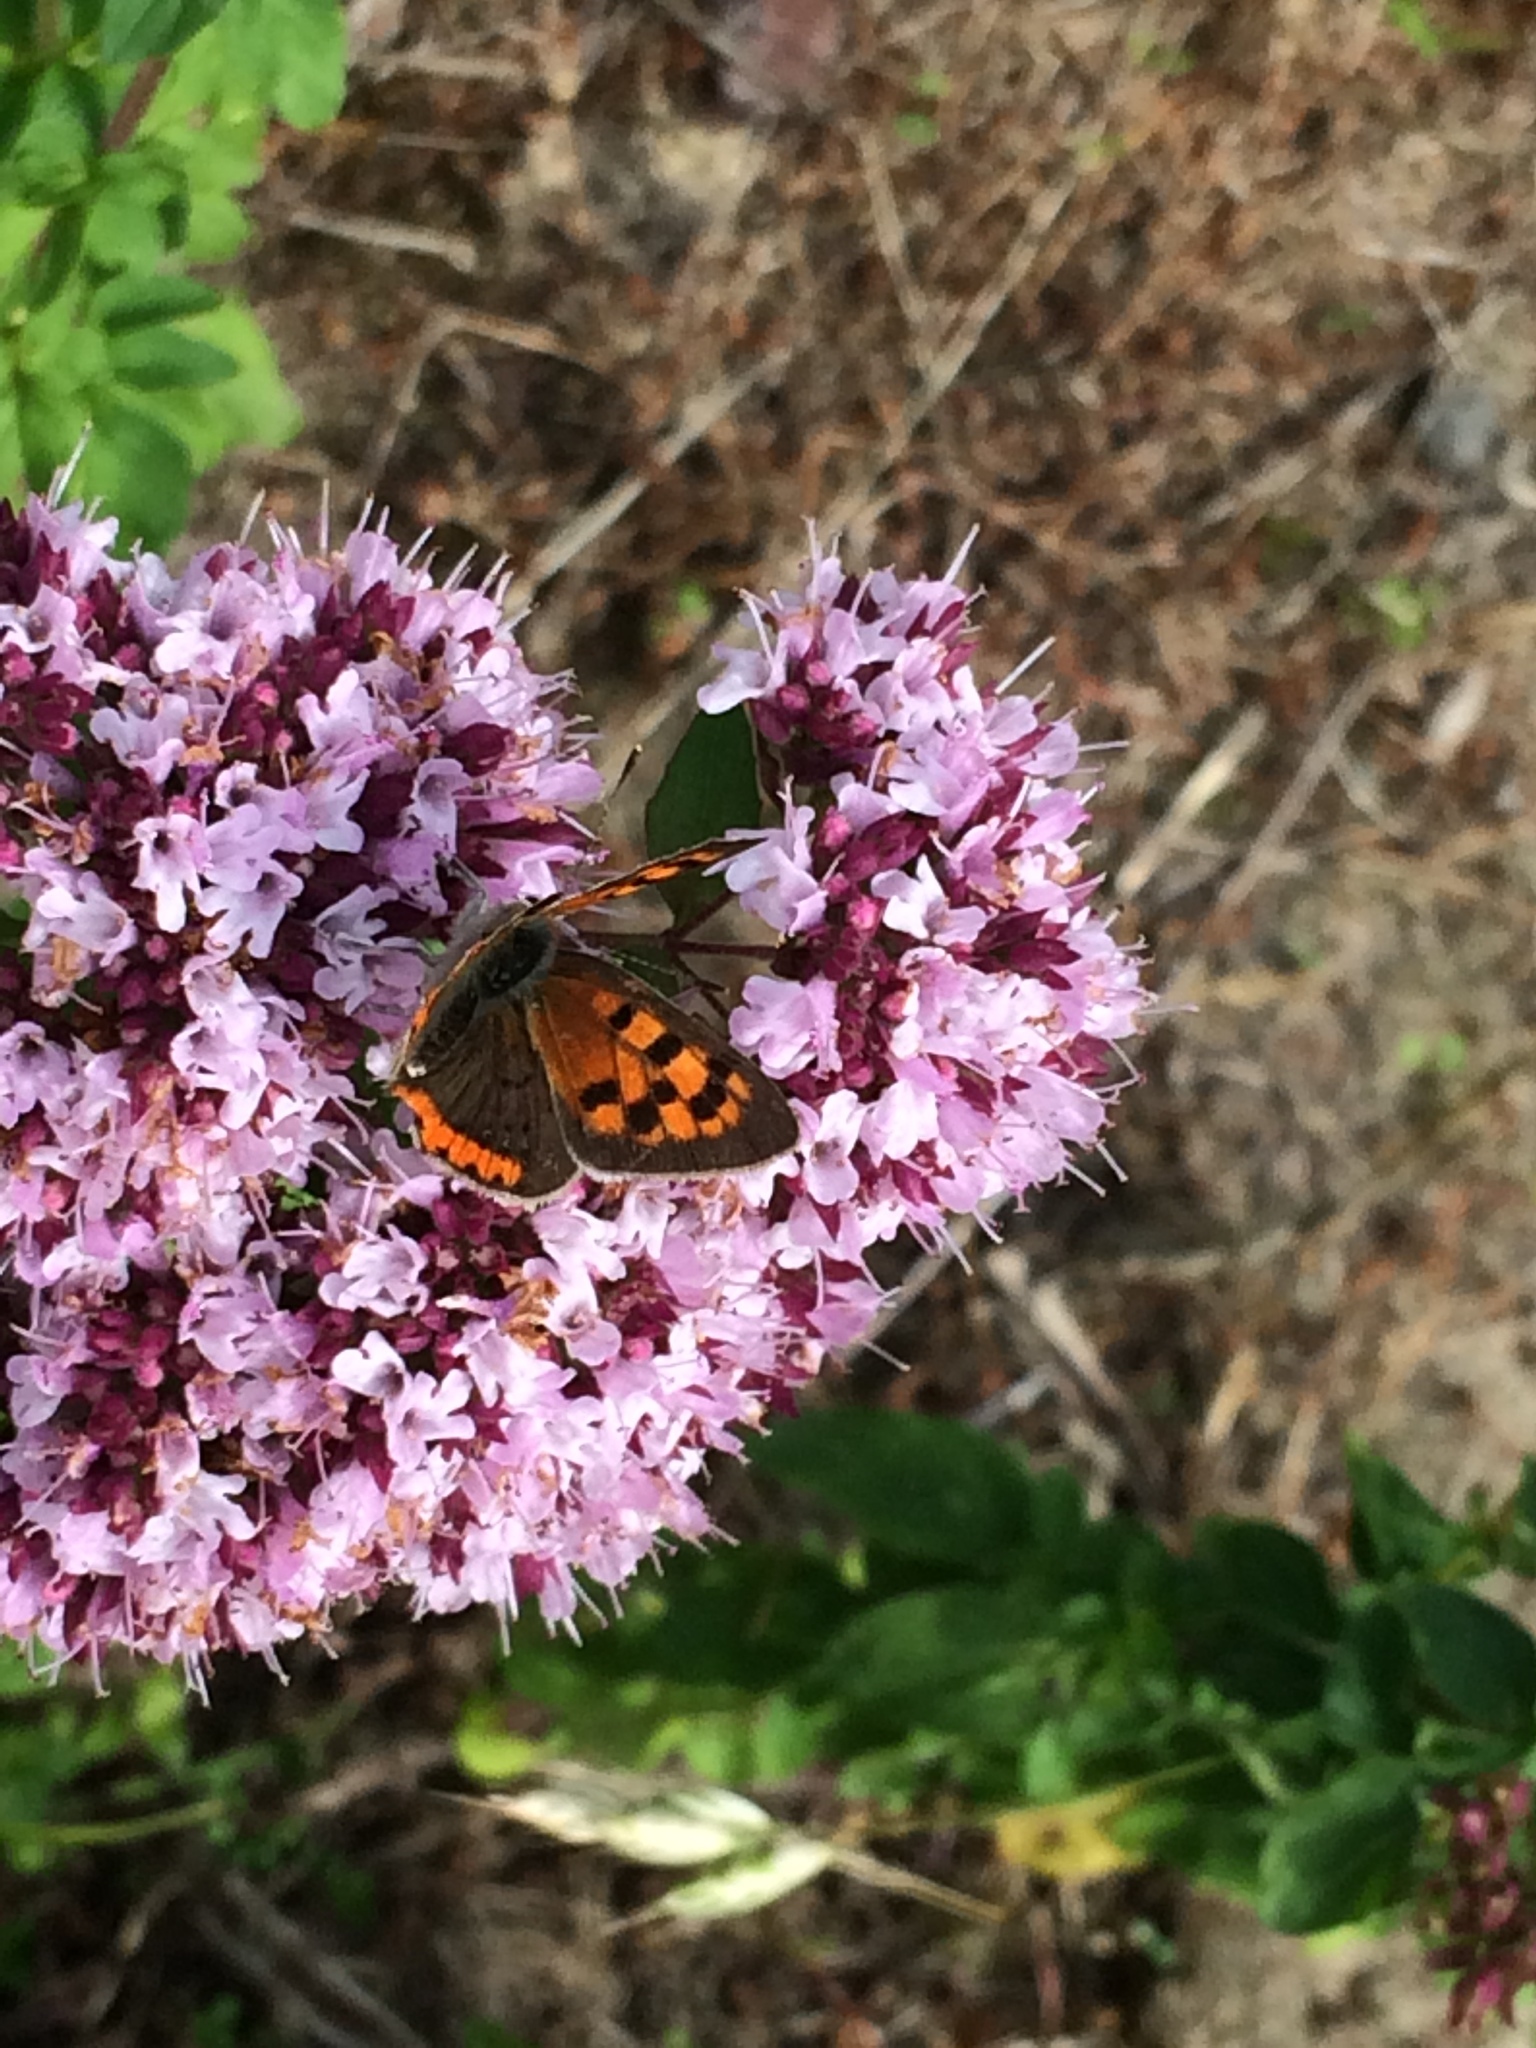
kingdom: Animalia
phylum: Arthropoda
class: Insecta
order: Lepidoptera
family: Lycaenidae
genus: Lycaena
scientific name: Lycaena phlaeas
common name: Small copper
